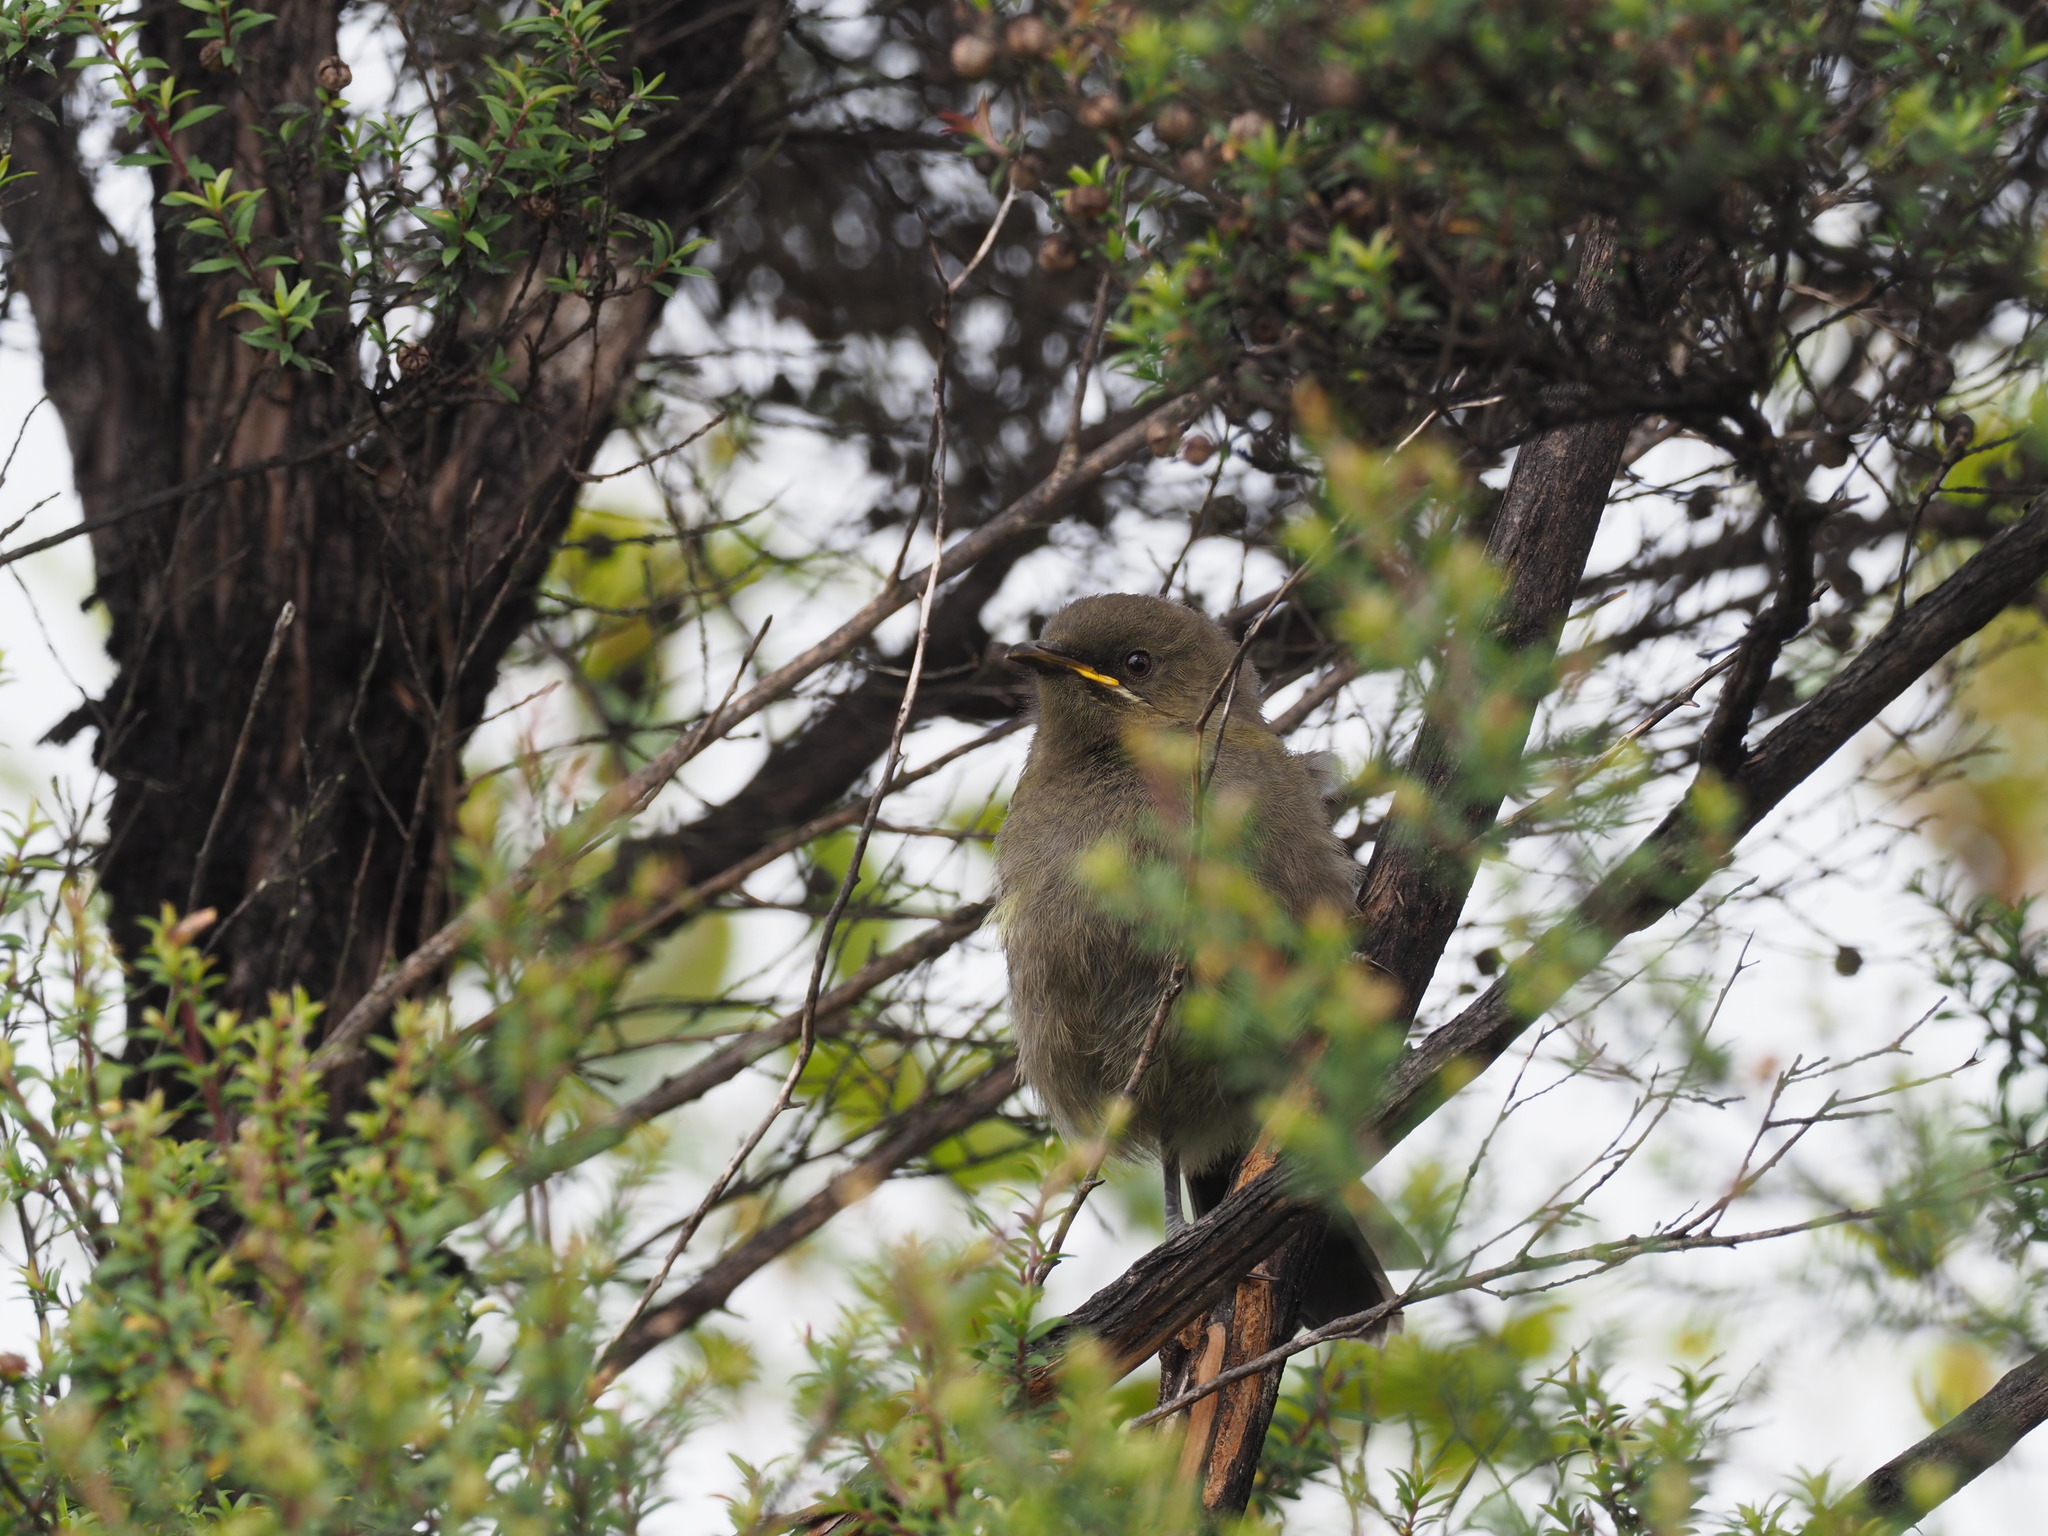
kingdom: Animalia
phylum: Chordata
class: Aves
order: Passeriformes
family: Meliphagidae
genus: Anthornis
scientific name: Anthornis melanura
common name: New zealand bellbird
